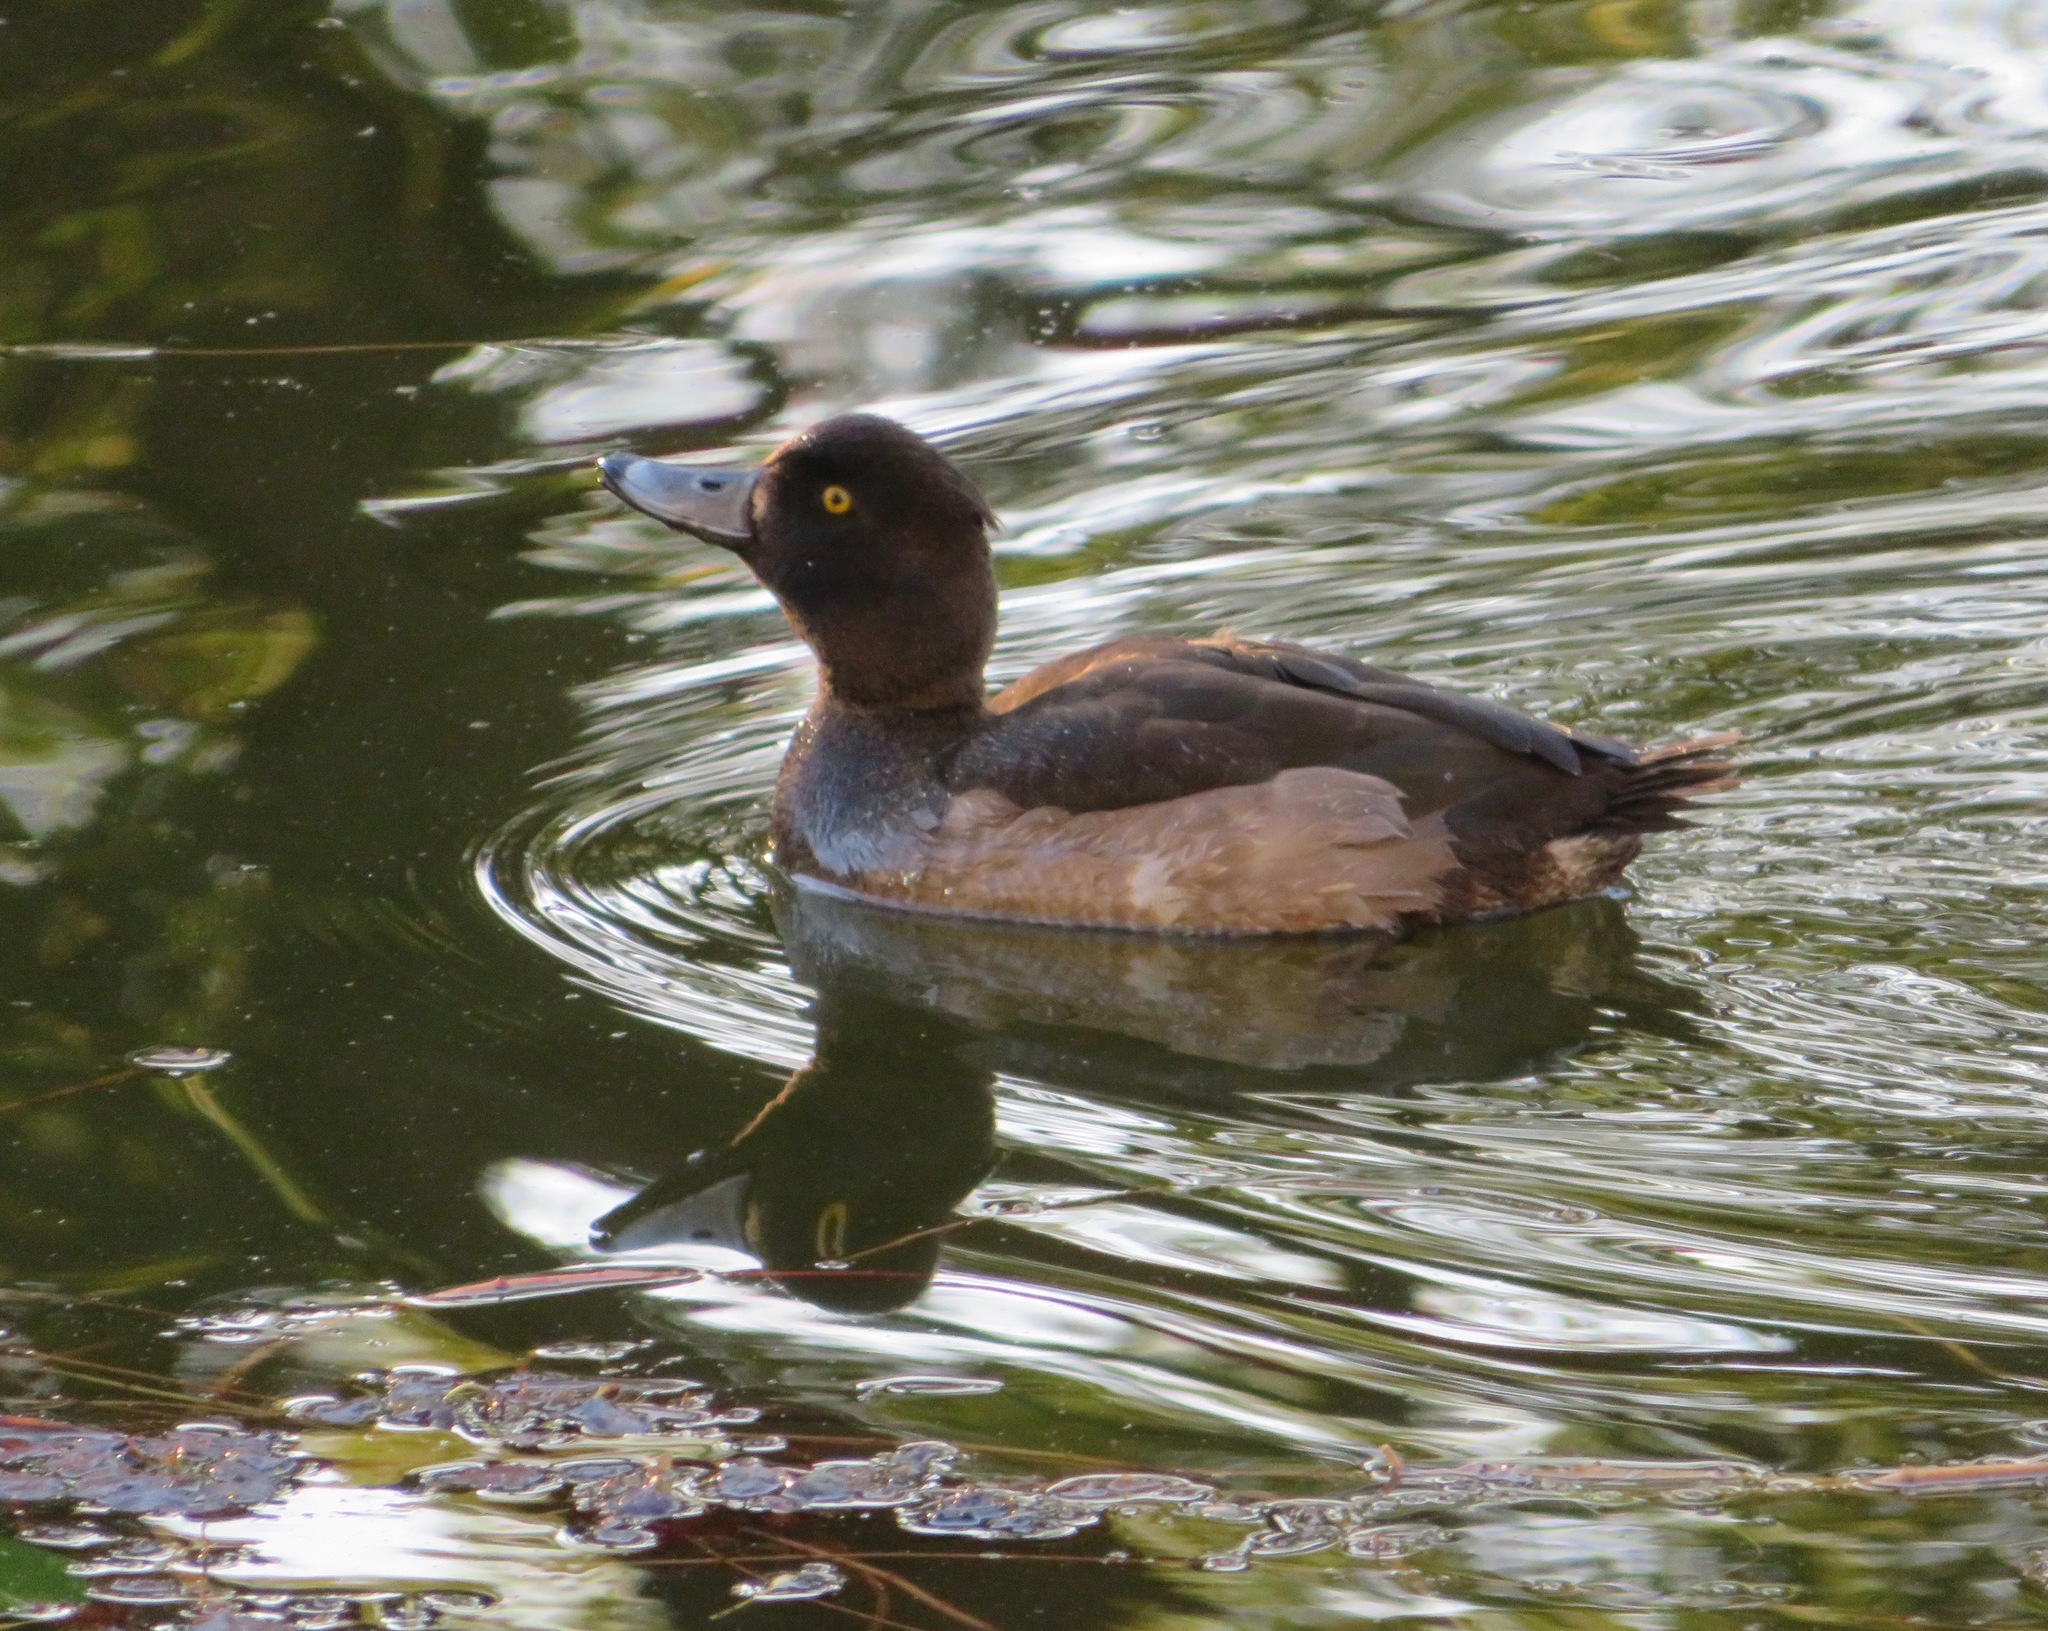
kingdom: Animalia
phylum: Chordata
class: Aves
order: Anseriformes
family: Anatidae
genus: Aythya
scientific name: Aythya fuligula
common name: Tufted duck
